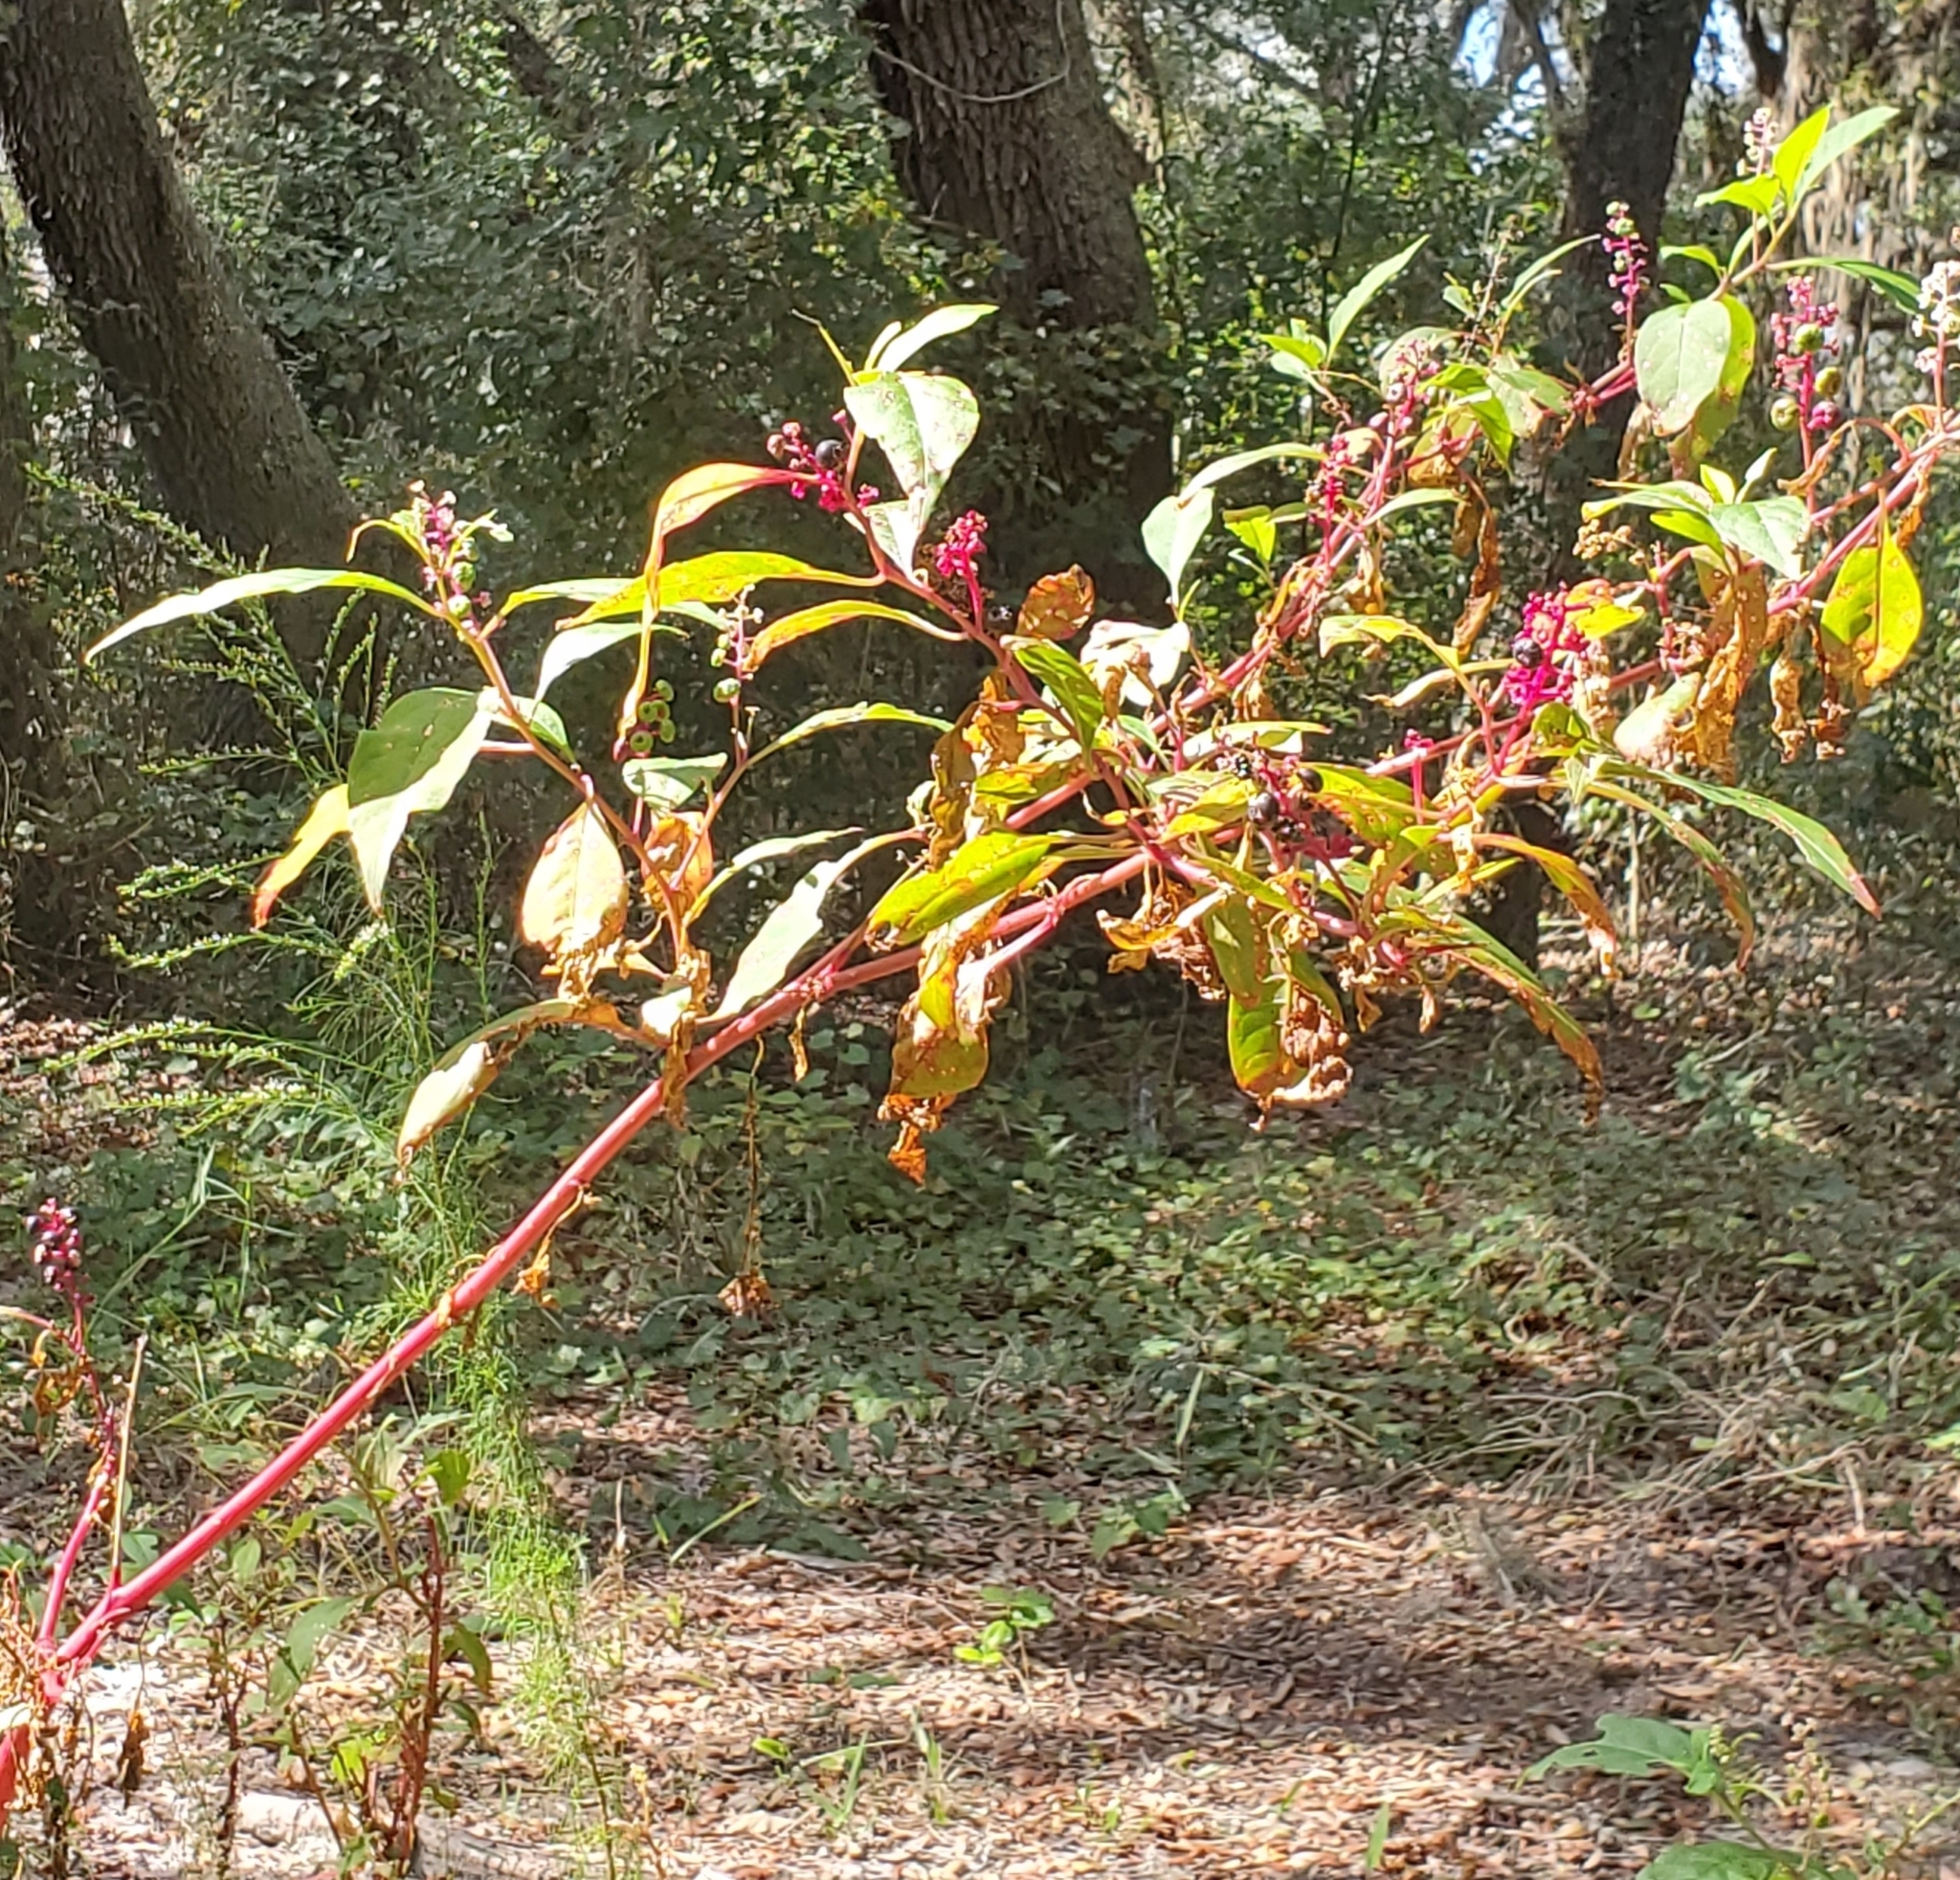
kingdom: Plantae
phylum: Tracheophyta
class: Magnoliopsida
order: Caryophyllales
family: Phytolaccaceae
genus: Phytolacca
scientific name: Phytolacca americana
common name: American pokeweed
